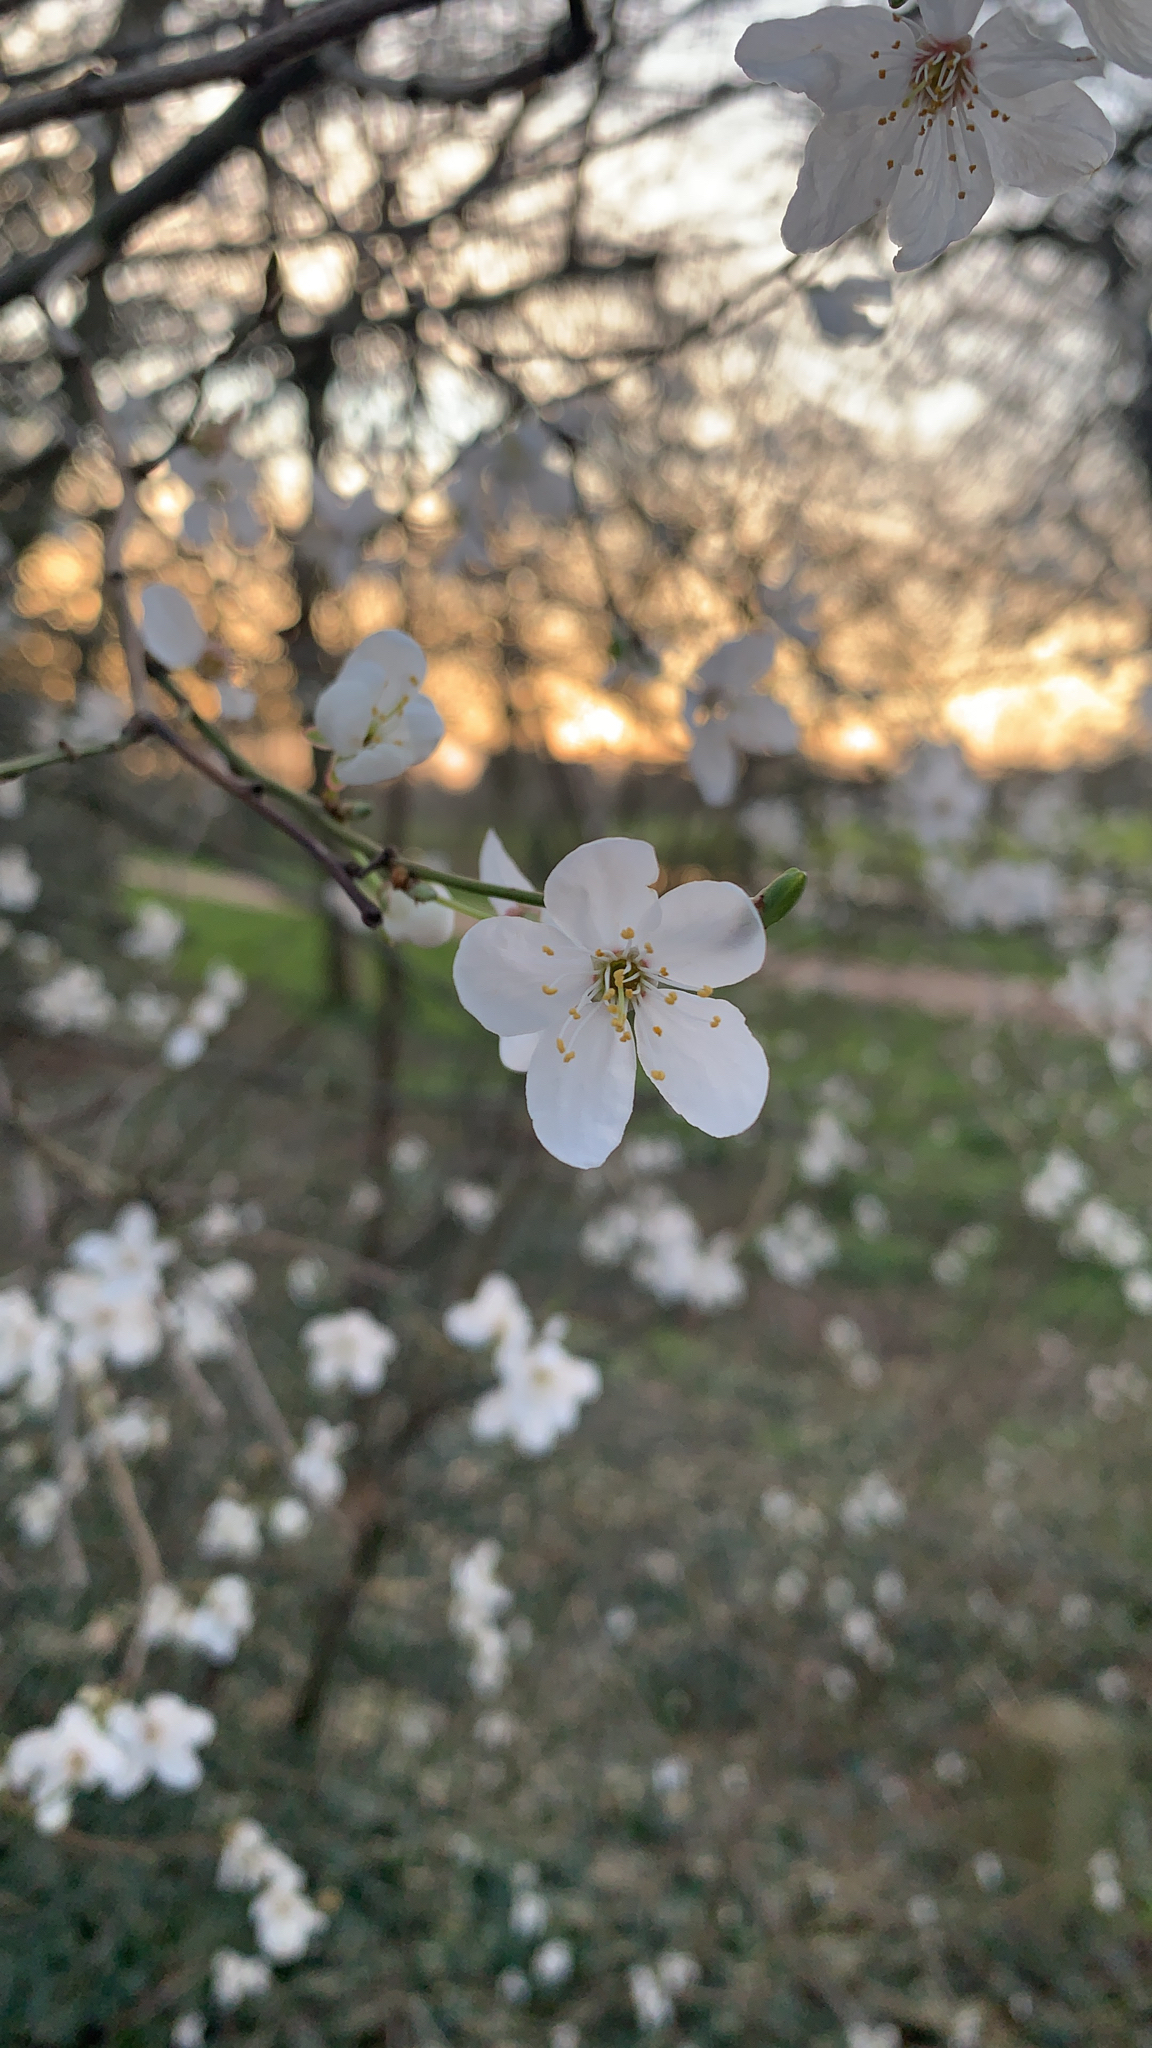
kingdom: Plantae
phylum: Tracheophyta
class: Magnoliopsida
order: Rosales
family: Rosaceae
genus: Prunus
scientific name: Prunus cerasifera
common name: Cherry plum
